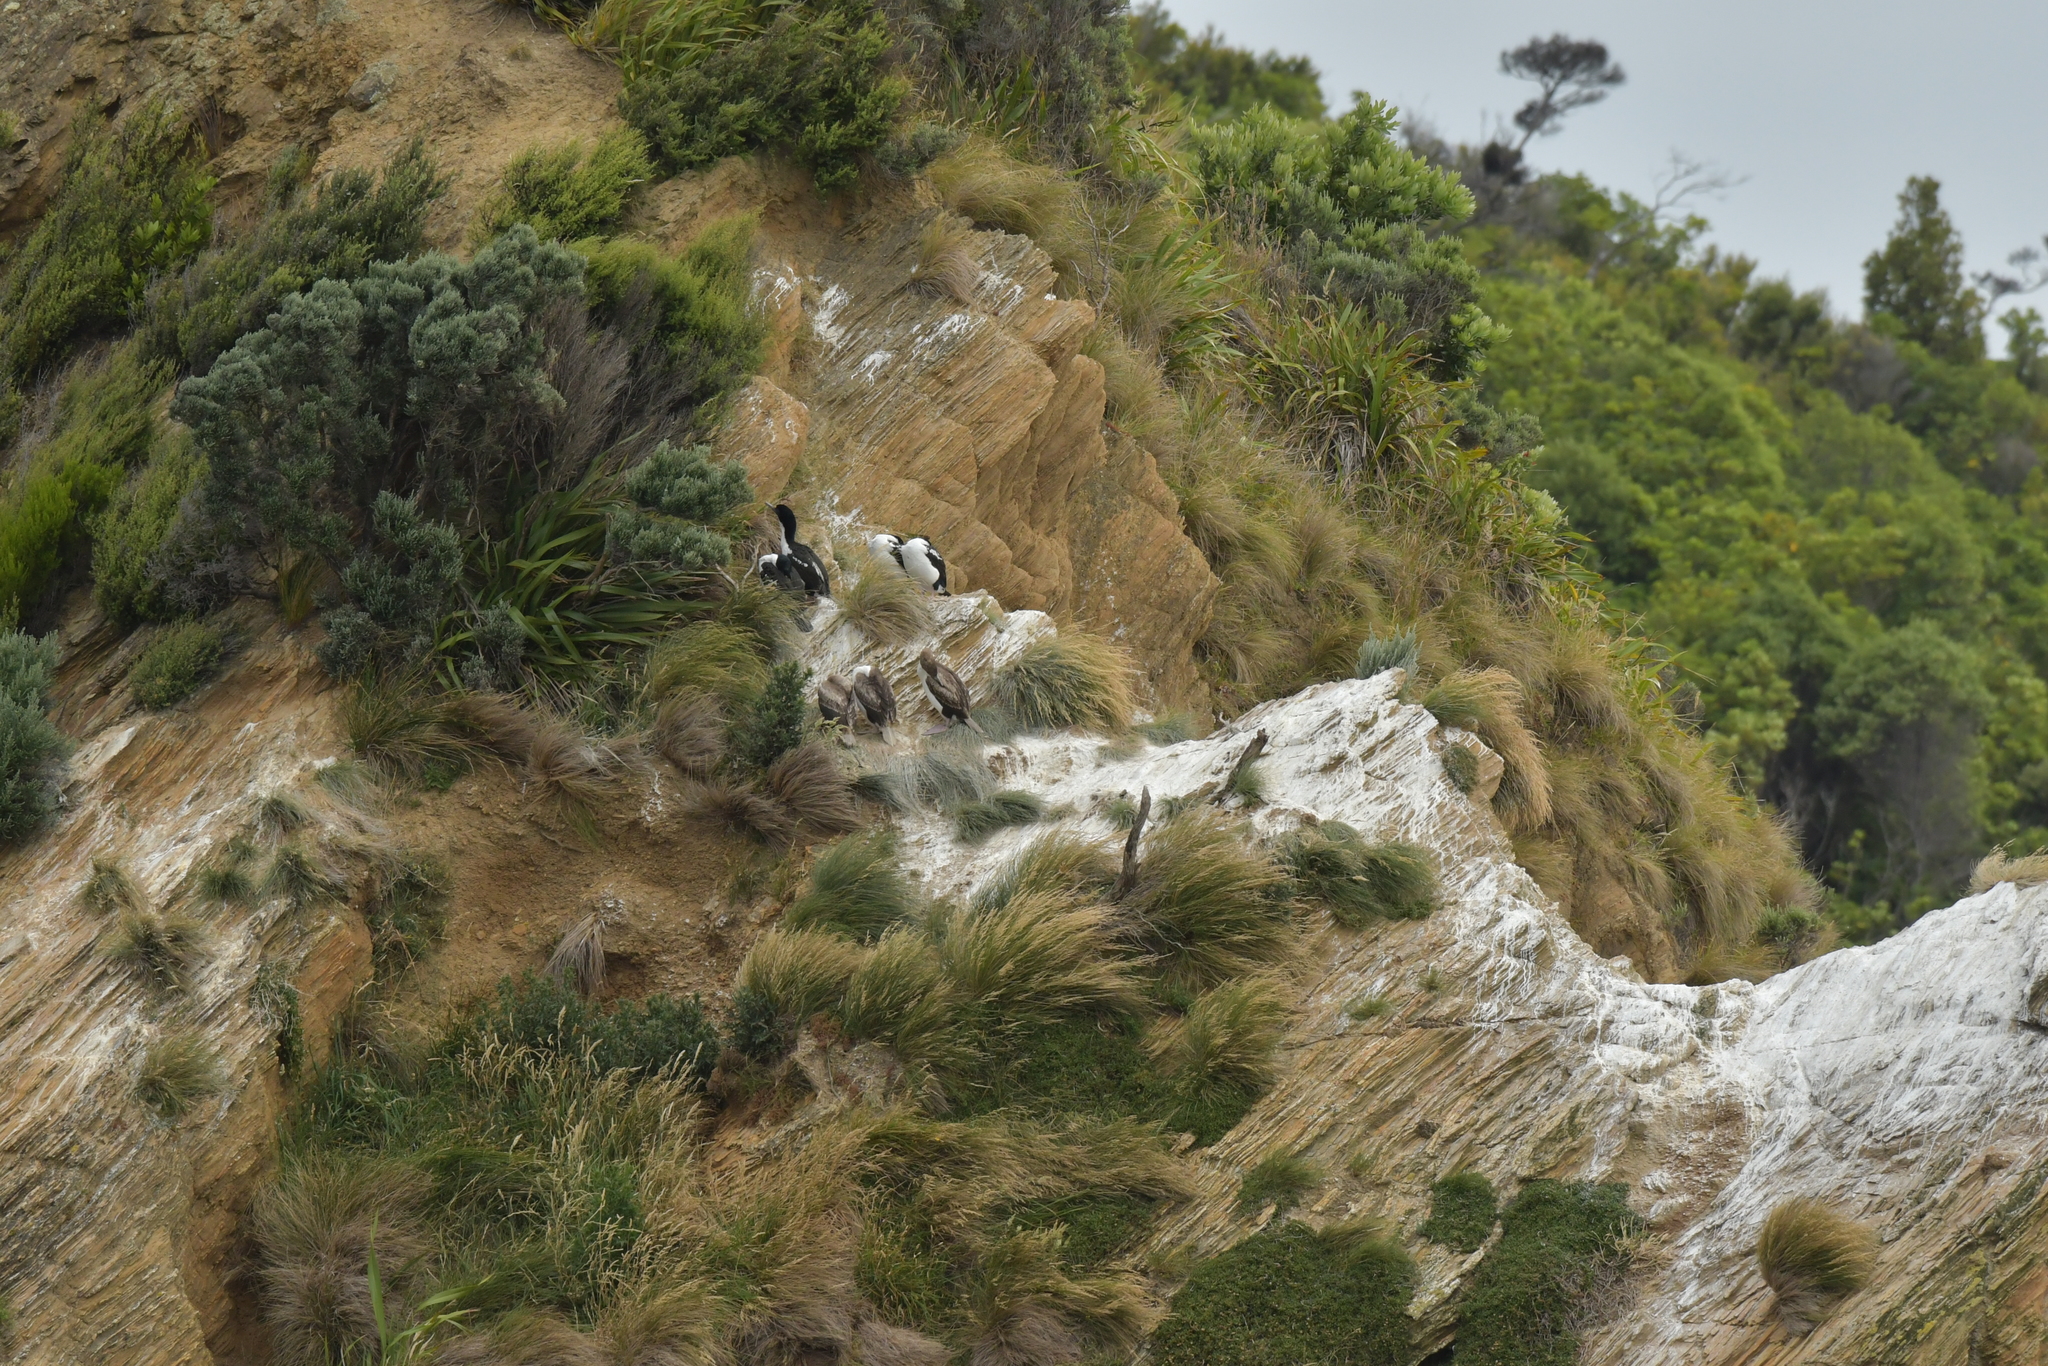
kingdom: Animalia
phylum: Chordata
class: Aves
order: Suliformes
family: Phalacrocoracidae
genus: Leucocarbo
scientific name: Leucocarbo carunculatus
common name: Rough-faced shag
